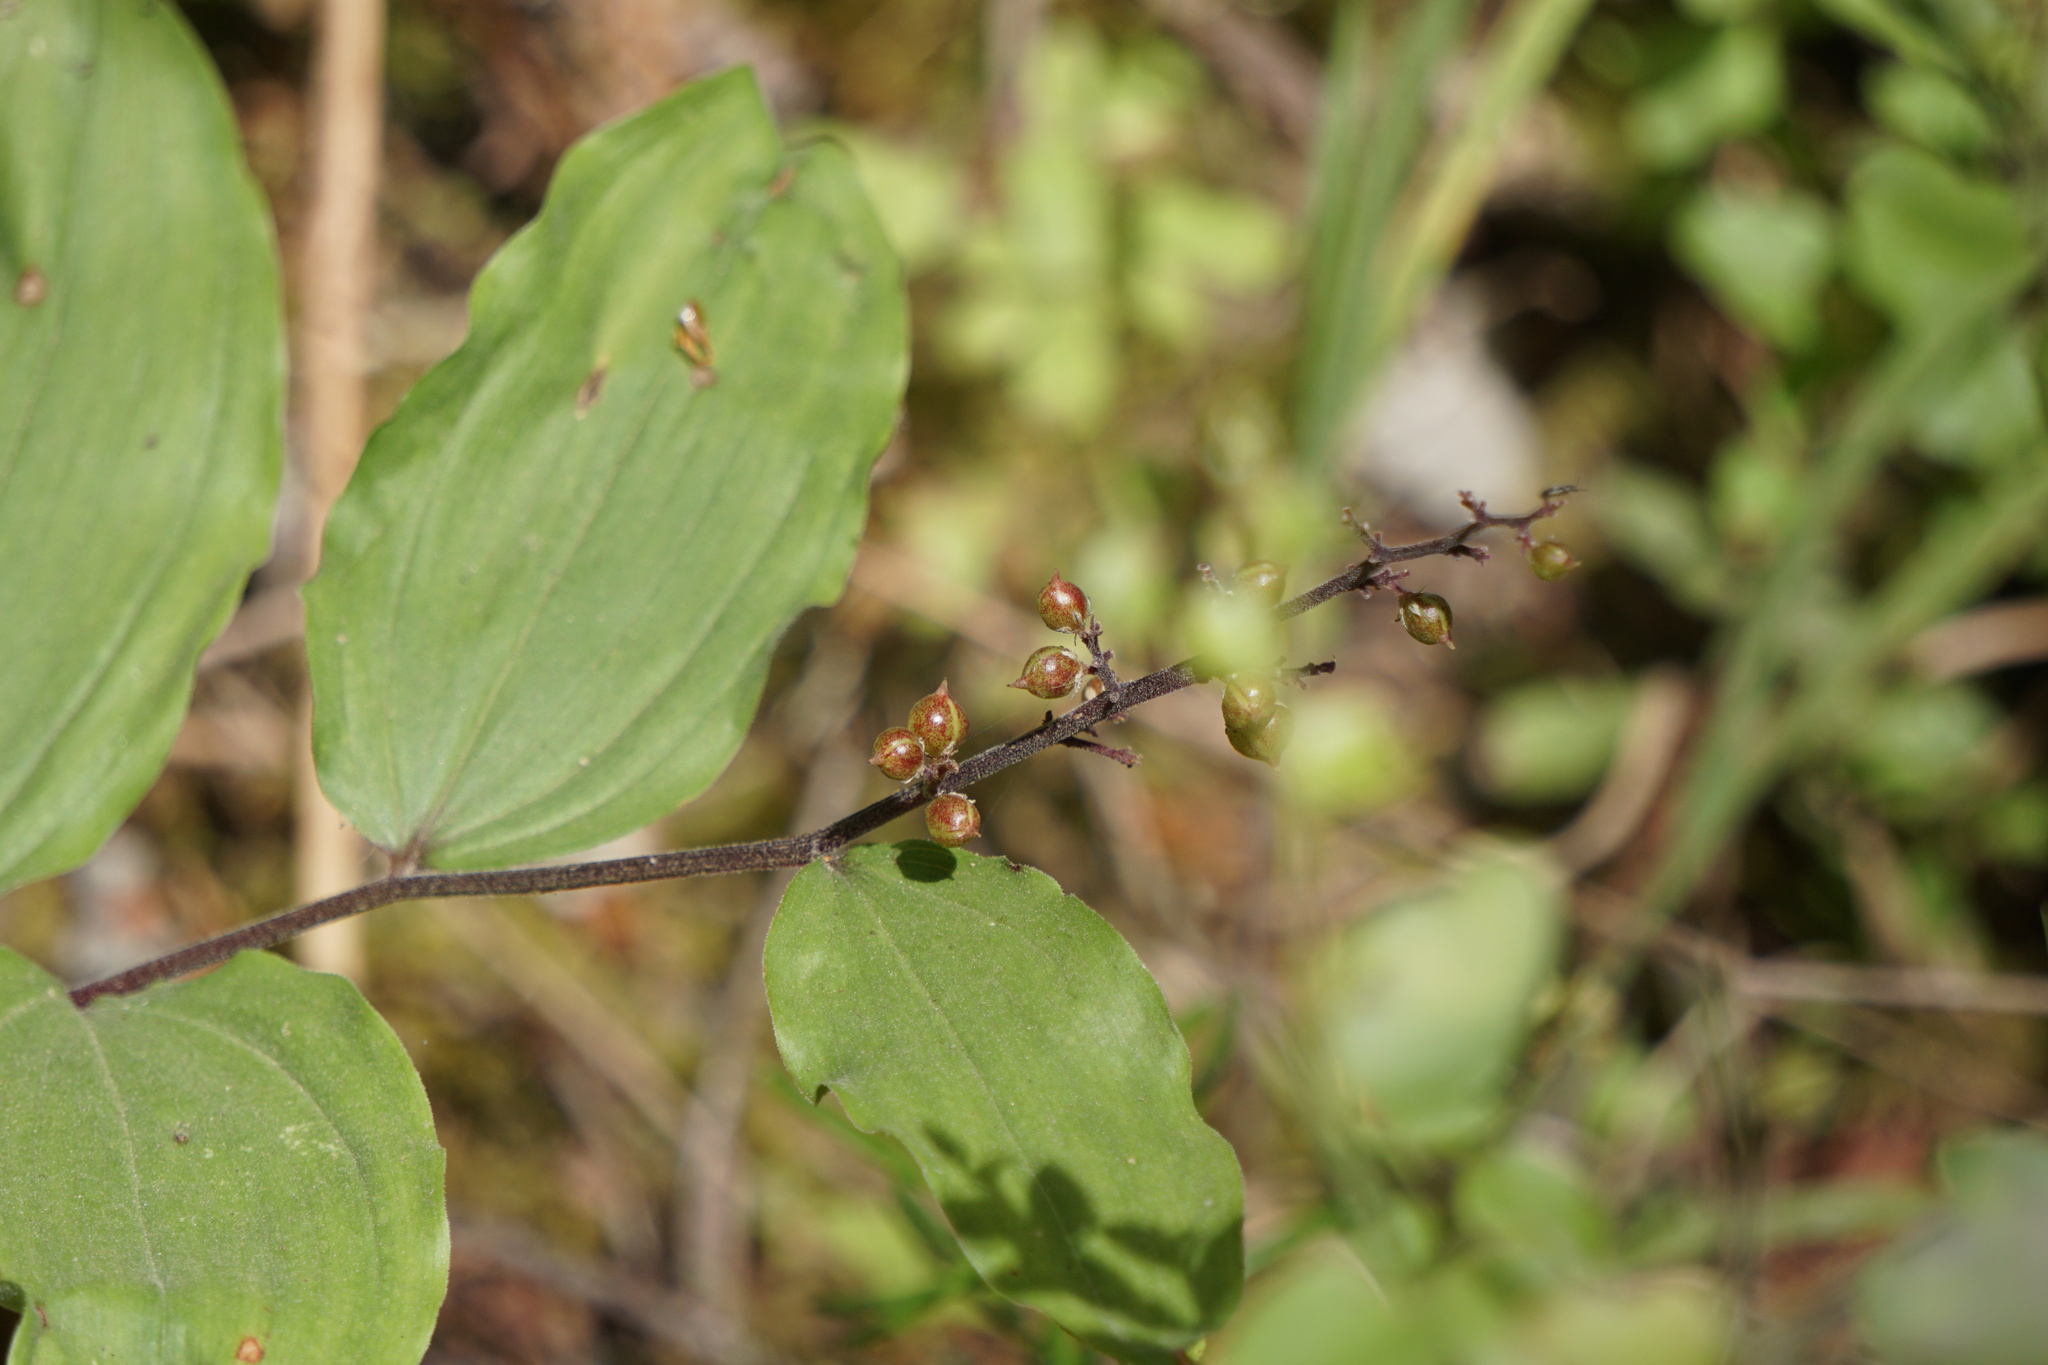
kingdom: Plantae
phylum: Tracheophyta
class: Liliopsida
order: Asparagales
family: Asparagaceae
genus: Maianthemum
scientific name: Maianthemum racemosum
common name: False spikenard
